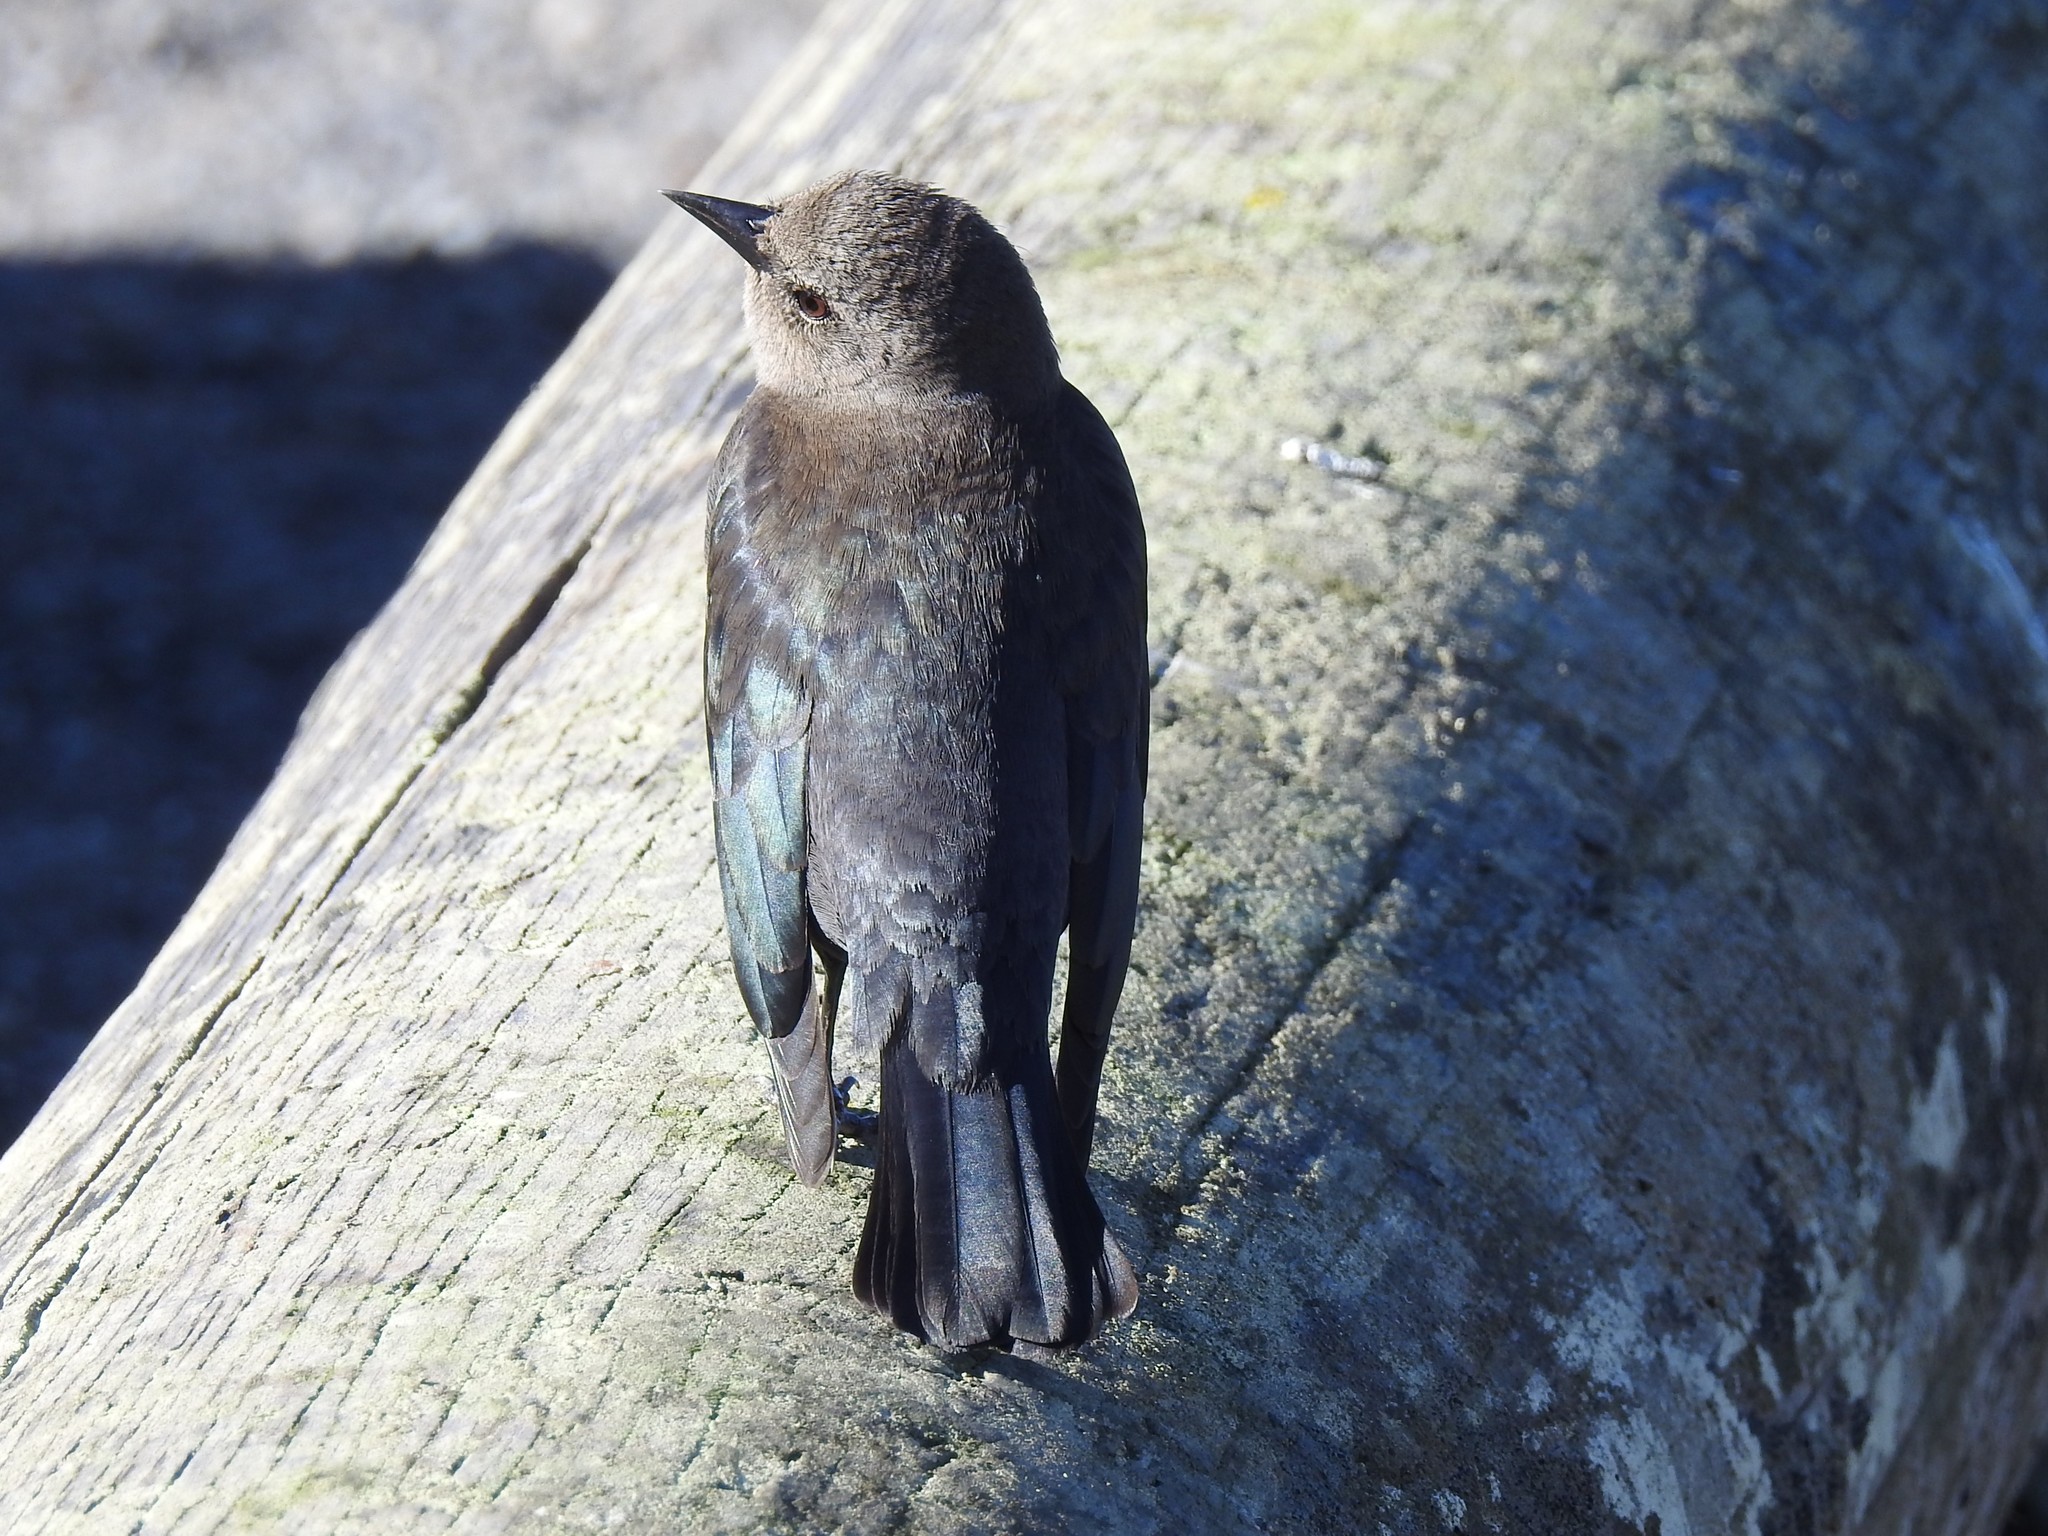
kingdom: Animalia
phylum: Chordata
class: Aves
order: Passeriformes
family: Icteridae
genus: Euphagus
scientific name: Euphagus cyanocephalus
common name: Brewer's blackbird
